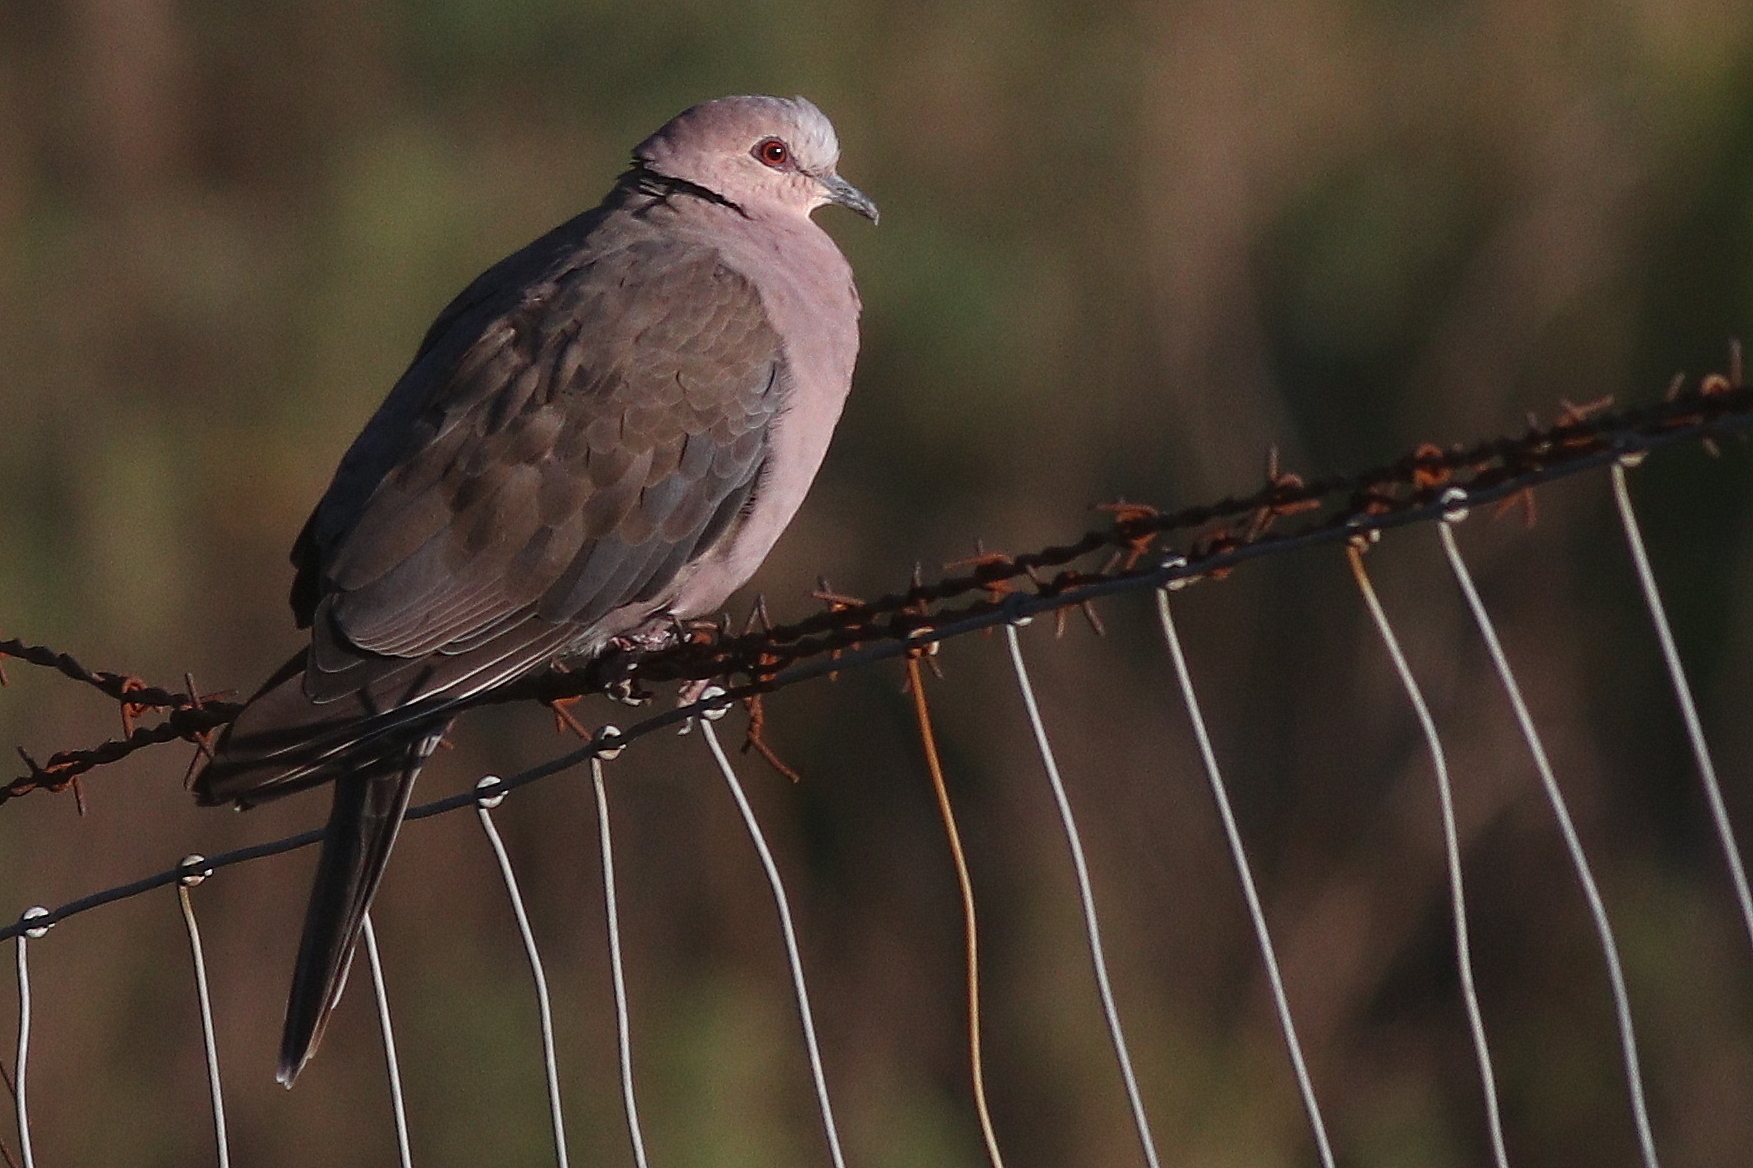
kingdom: Animalia
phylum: Chordata
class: Aves
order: Columbiformes
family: Columbidae
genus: Streptopelia
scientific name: Streptopelia semitorquata
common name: Red-eyed dove
